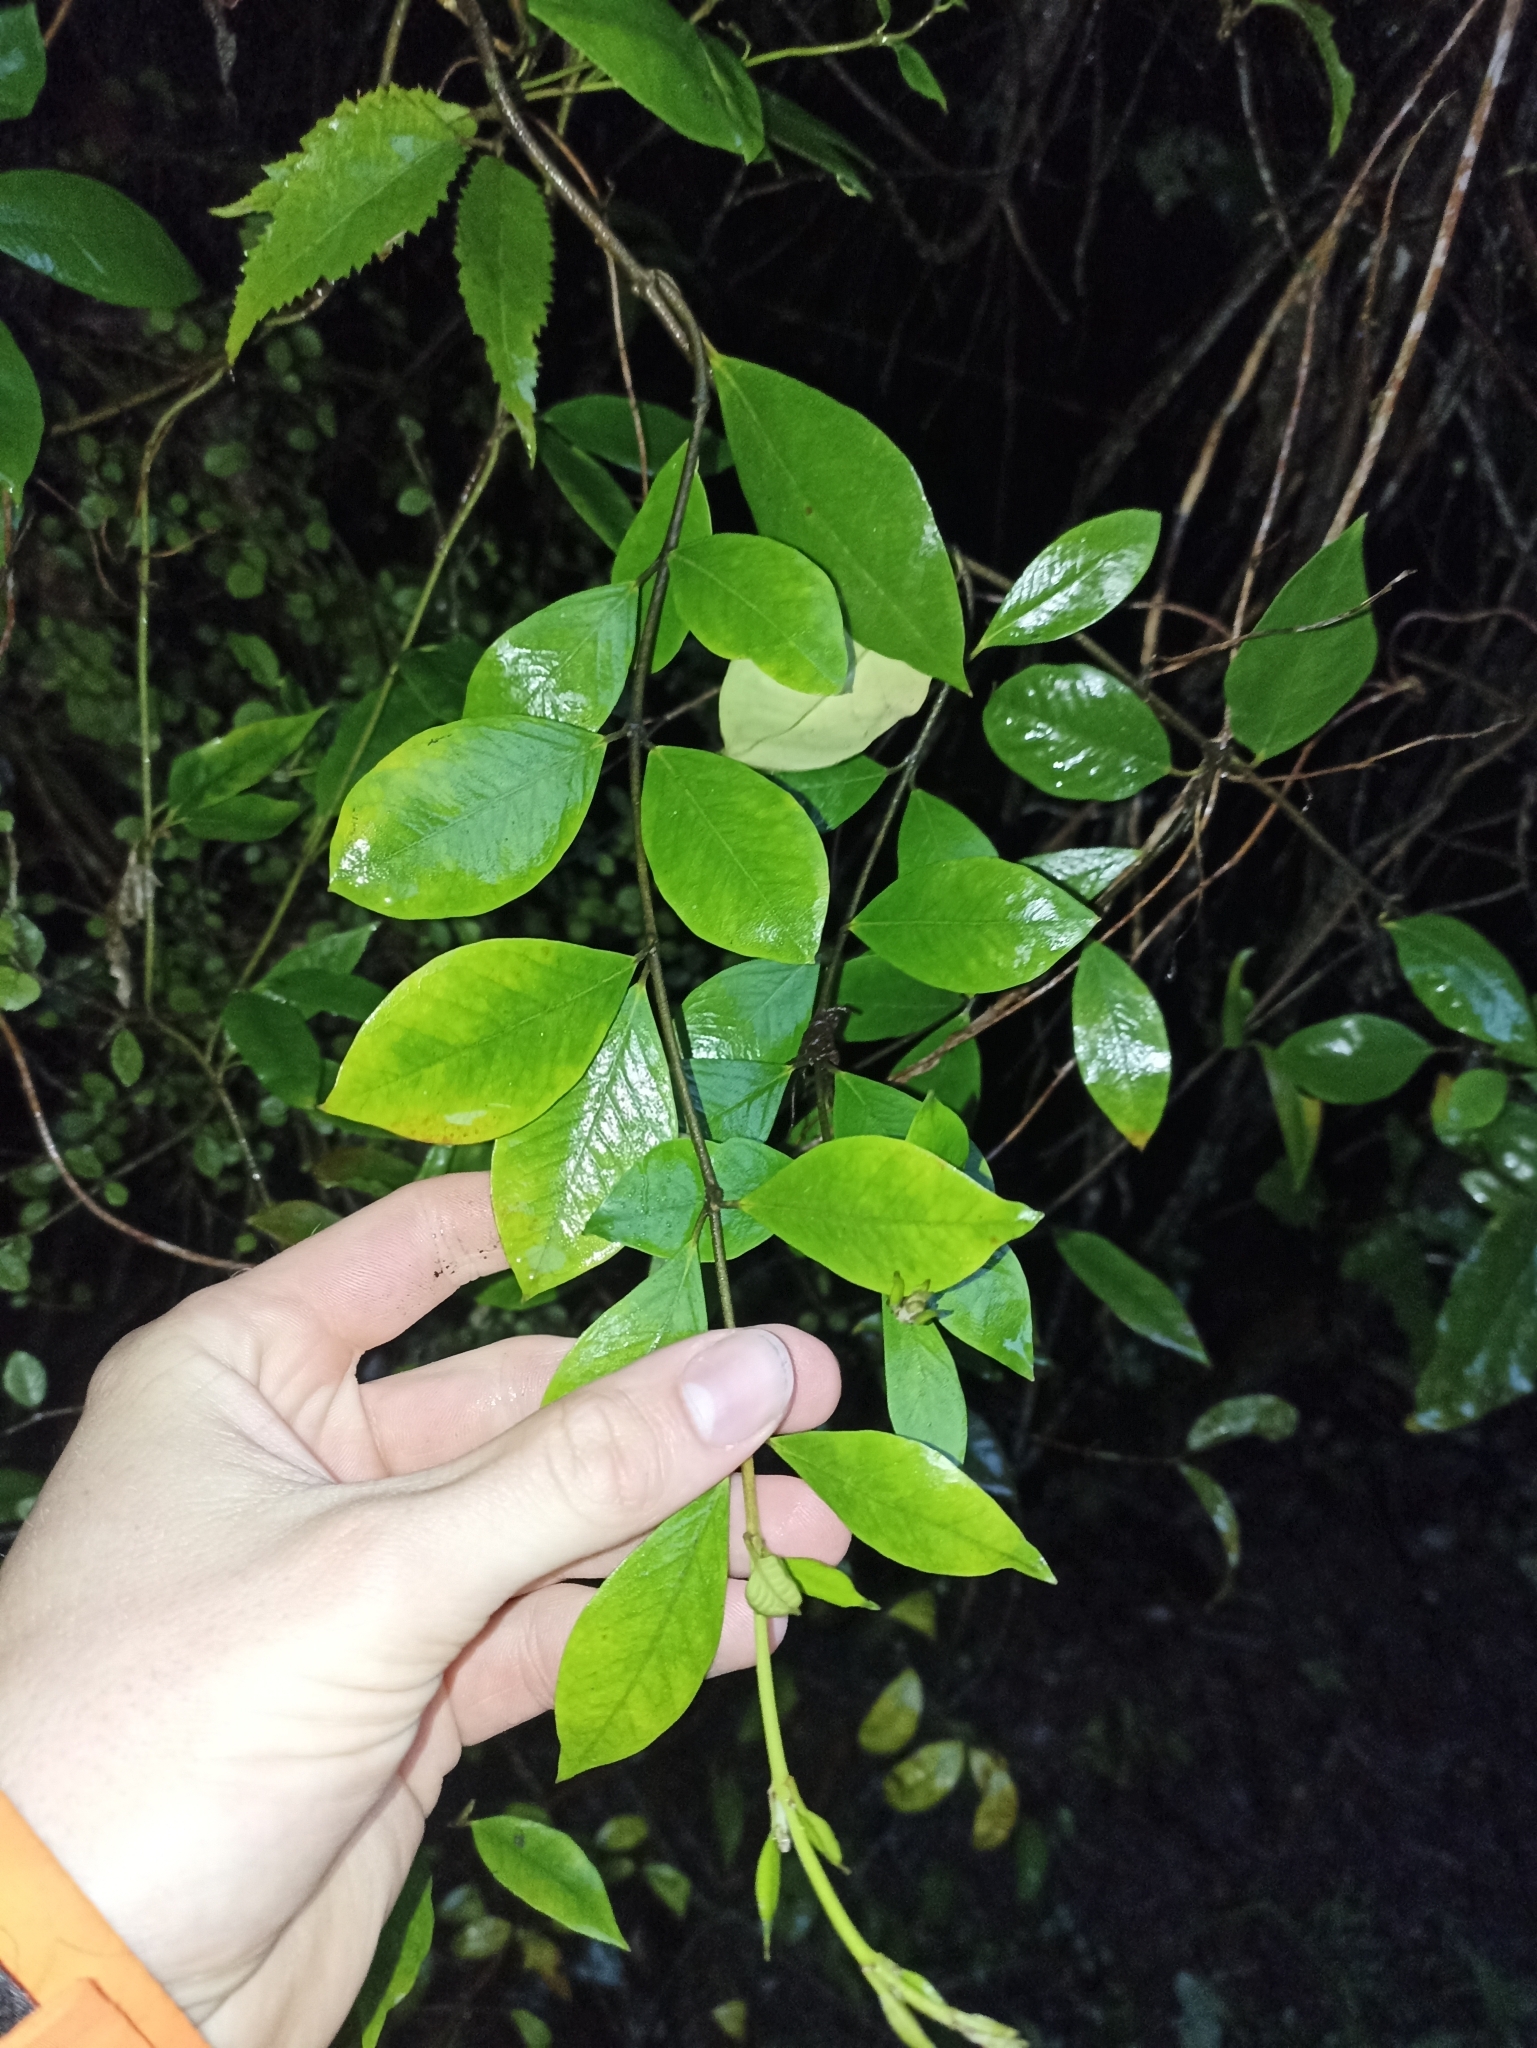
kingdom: Plantae
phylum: Tracheophyta
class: Magnoliopsida
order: Gentianales
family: Apocynaceae
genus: Parsonsia
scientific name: Parsonsia heterophylla
